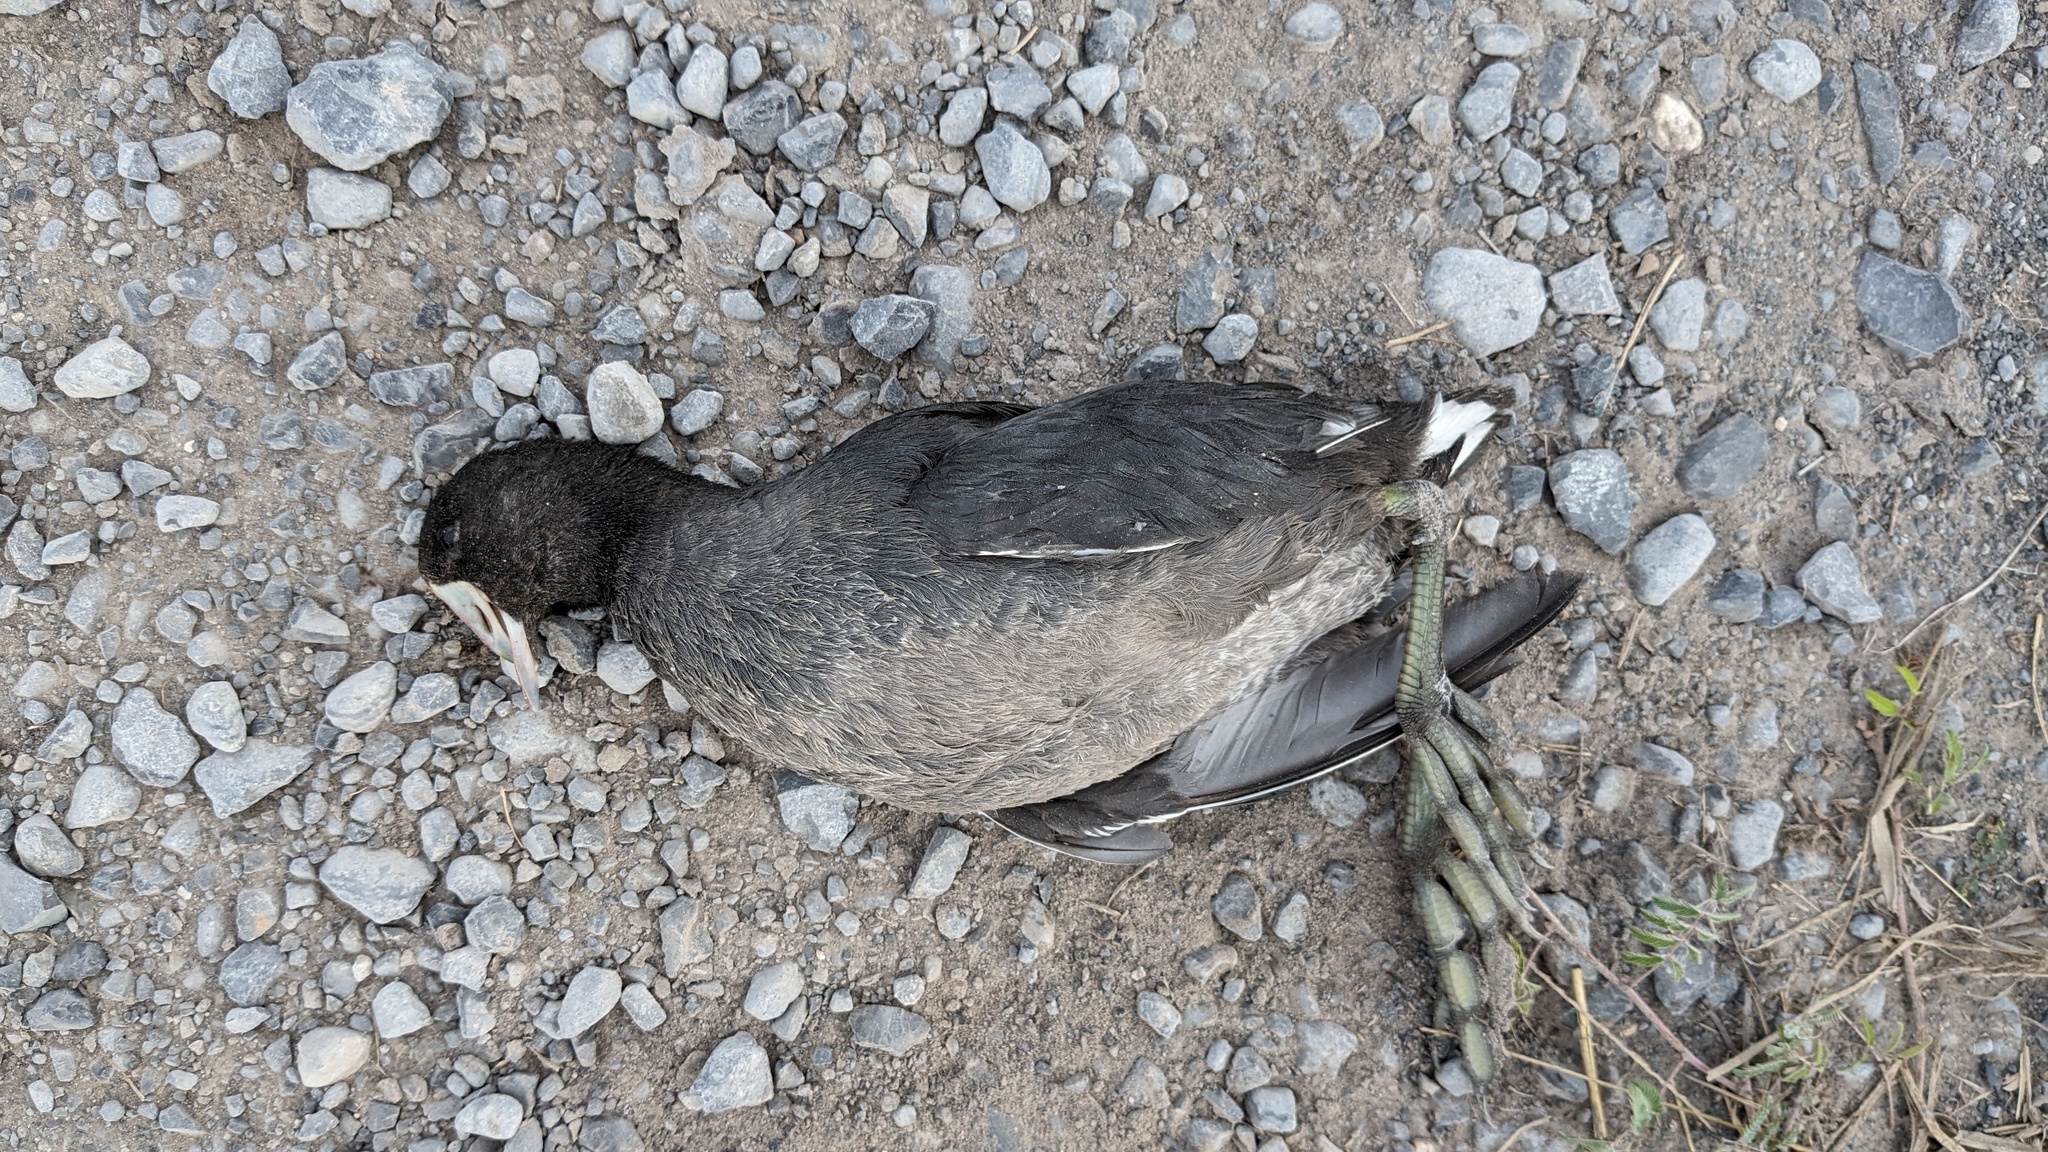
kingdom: Animalia
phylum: Chordata
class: Aves
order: Gruiformes
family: Rallidae
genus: Fulica
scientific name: Fulica americana
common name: American coot
